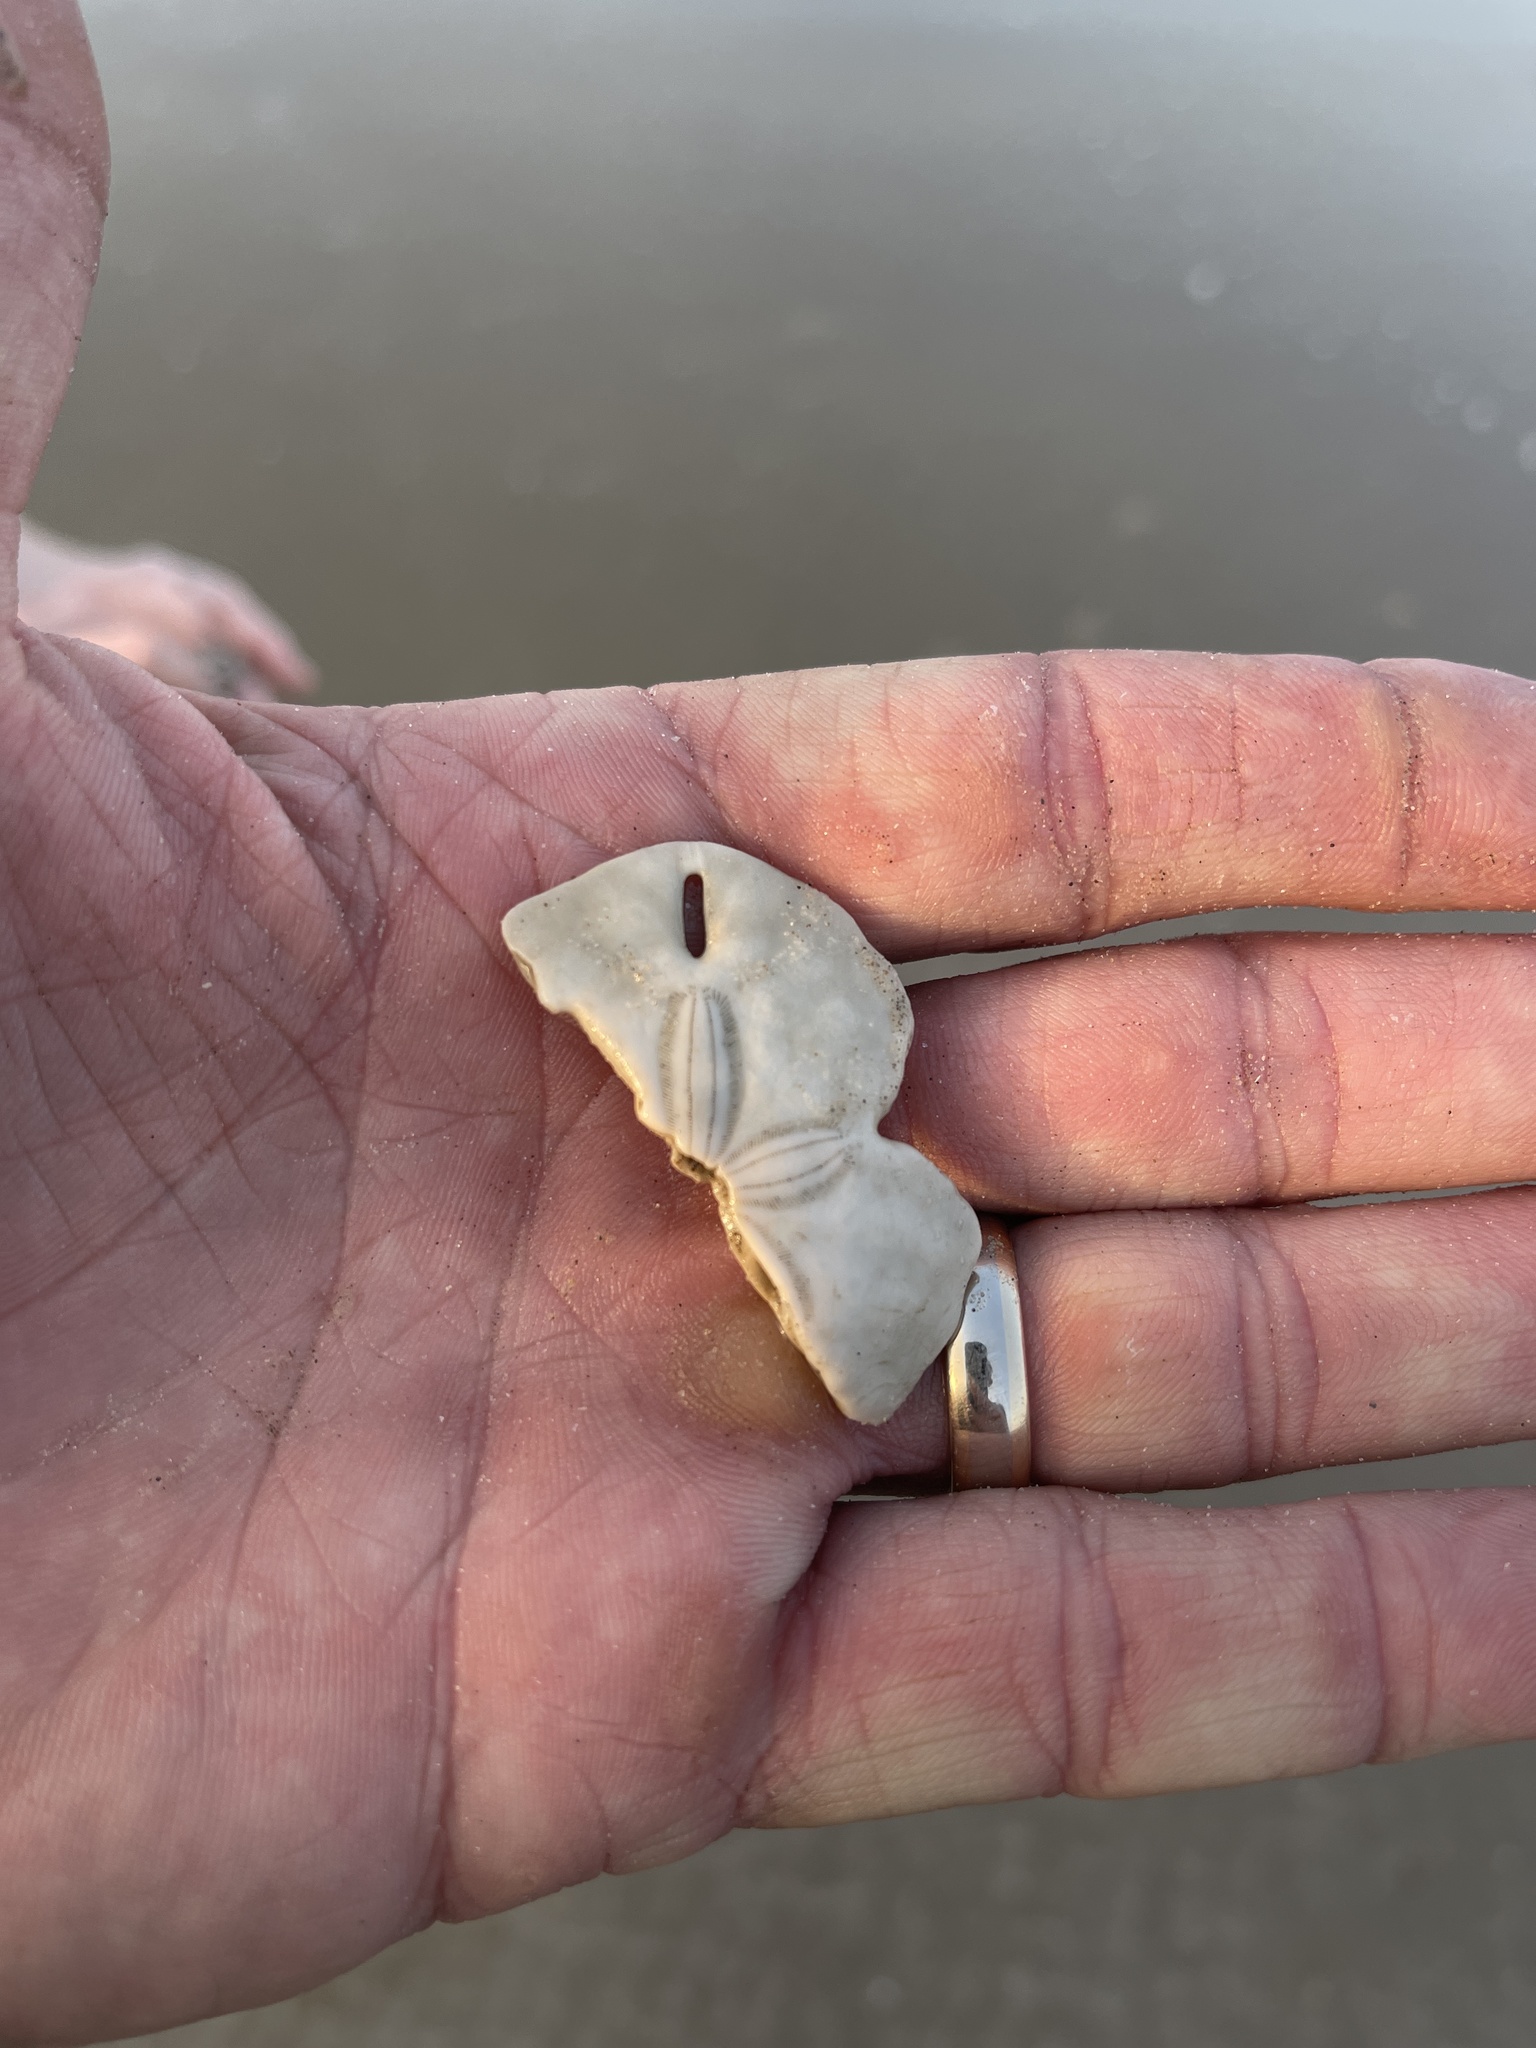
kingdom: Animalia
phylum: Echinodermata
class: Echinoidea
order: Echinolampadacea
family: Mellitidae
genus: Mellita
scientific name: Mellita quinquiesperforata
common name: Sand dollar
